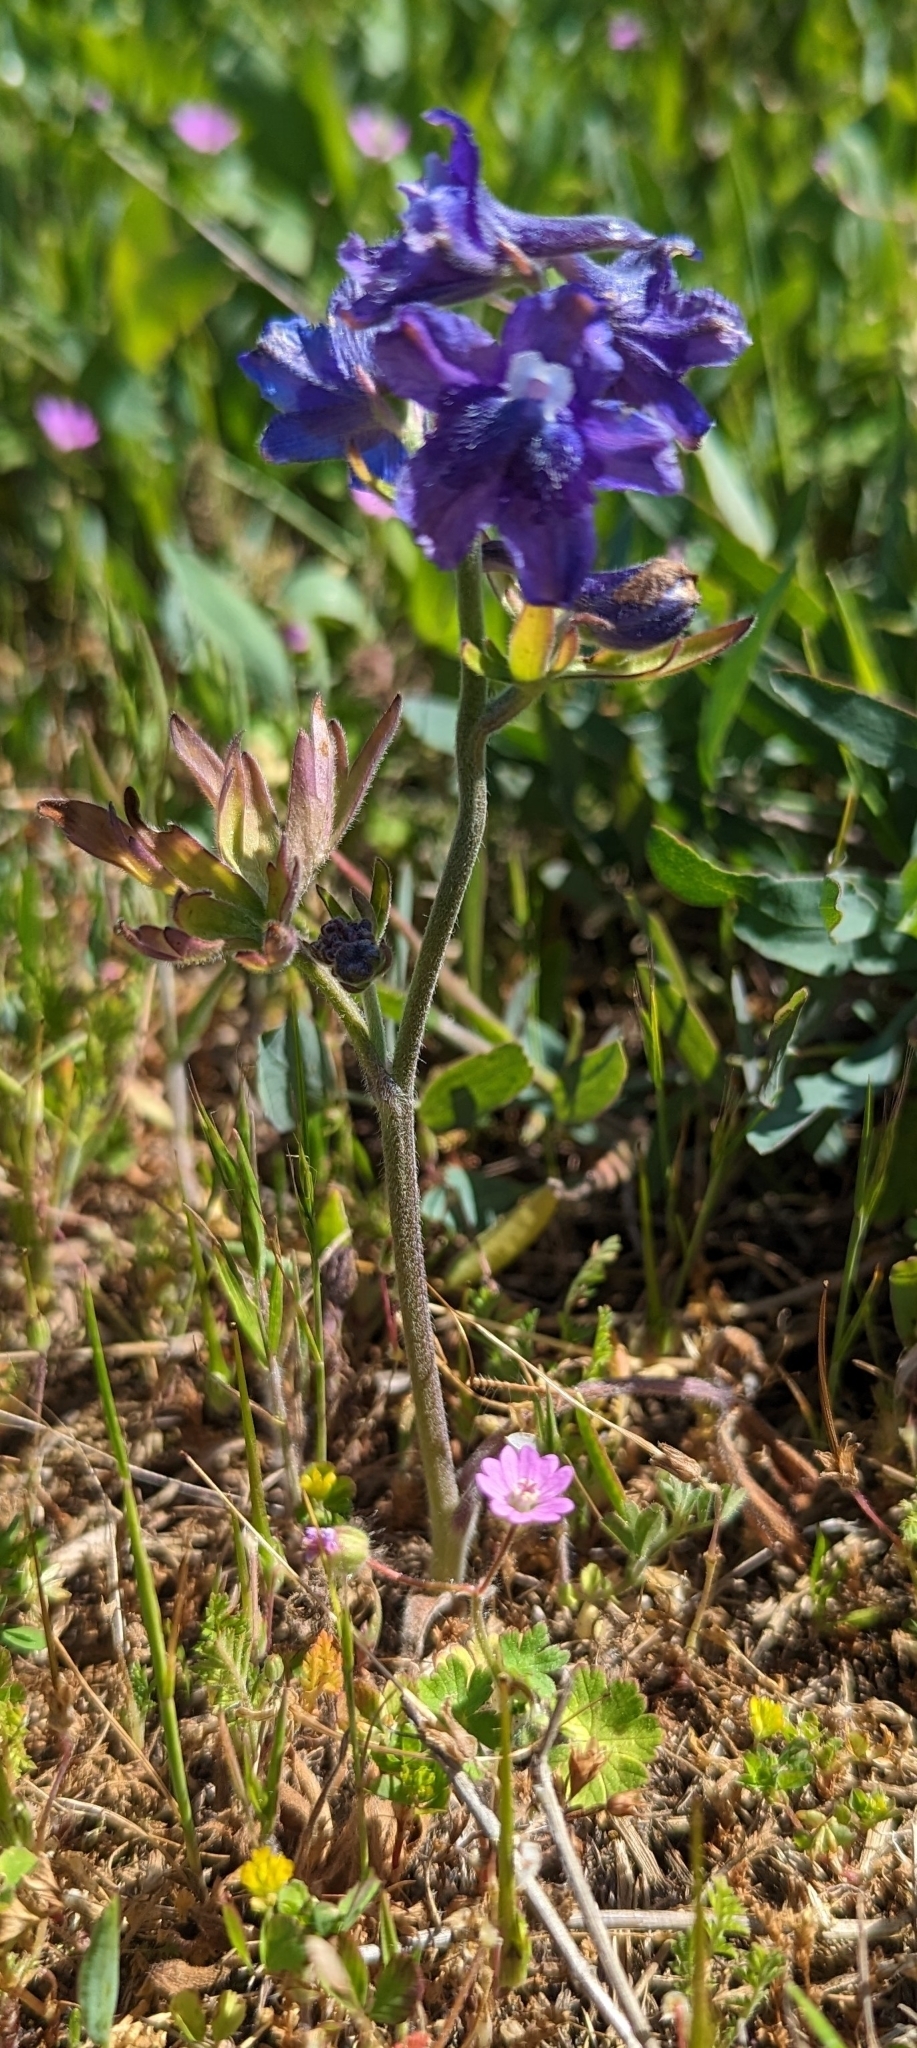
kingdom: Plantae
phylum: Tracheophyta
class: Magnoliopsida
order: Ranunculales
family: Ranunculaceae
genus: Delphinium
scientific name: Delphinium menziesii
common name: Menzies's larkspur
